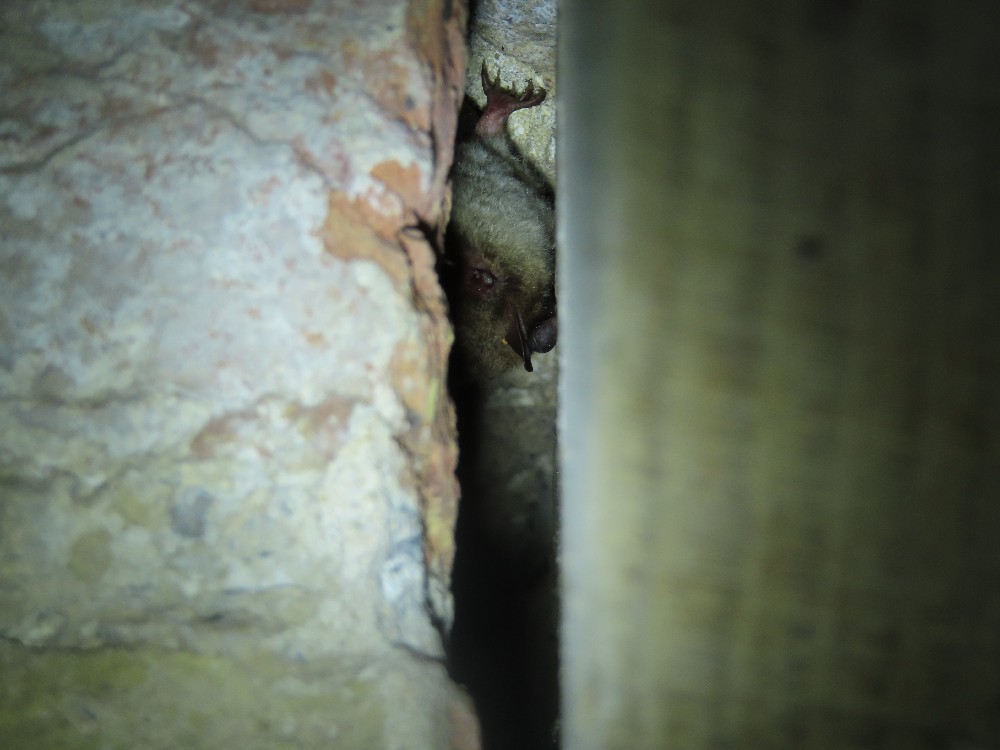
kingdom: Animalia
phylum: Chordata
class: Mammalia
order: Chiroptera
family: Vespertilionidae
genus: Myotis
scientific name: Myotis daubentonii
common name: Daubenton's myotis
